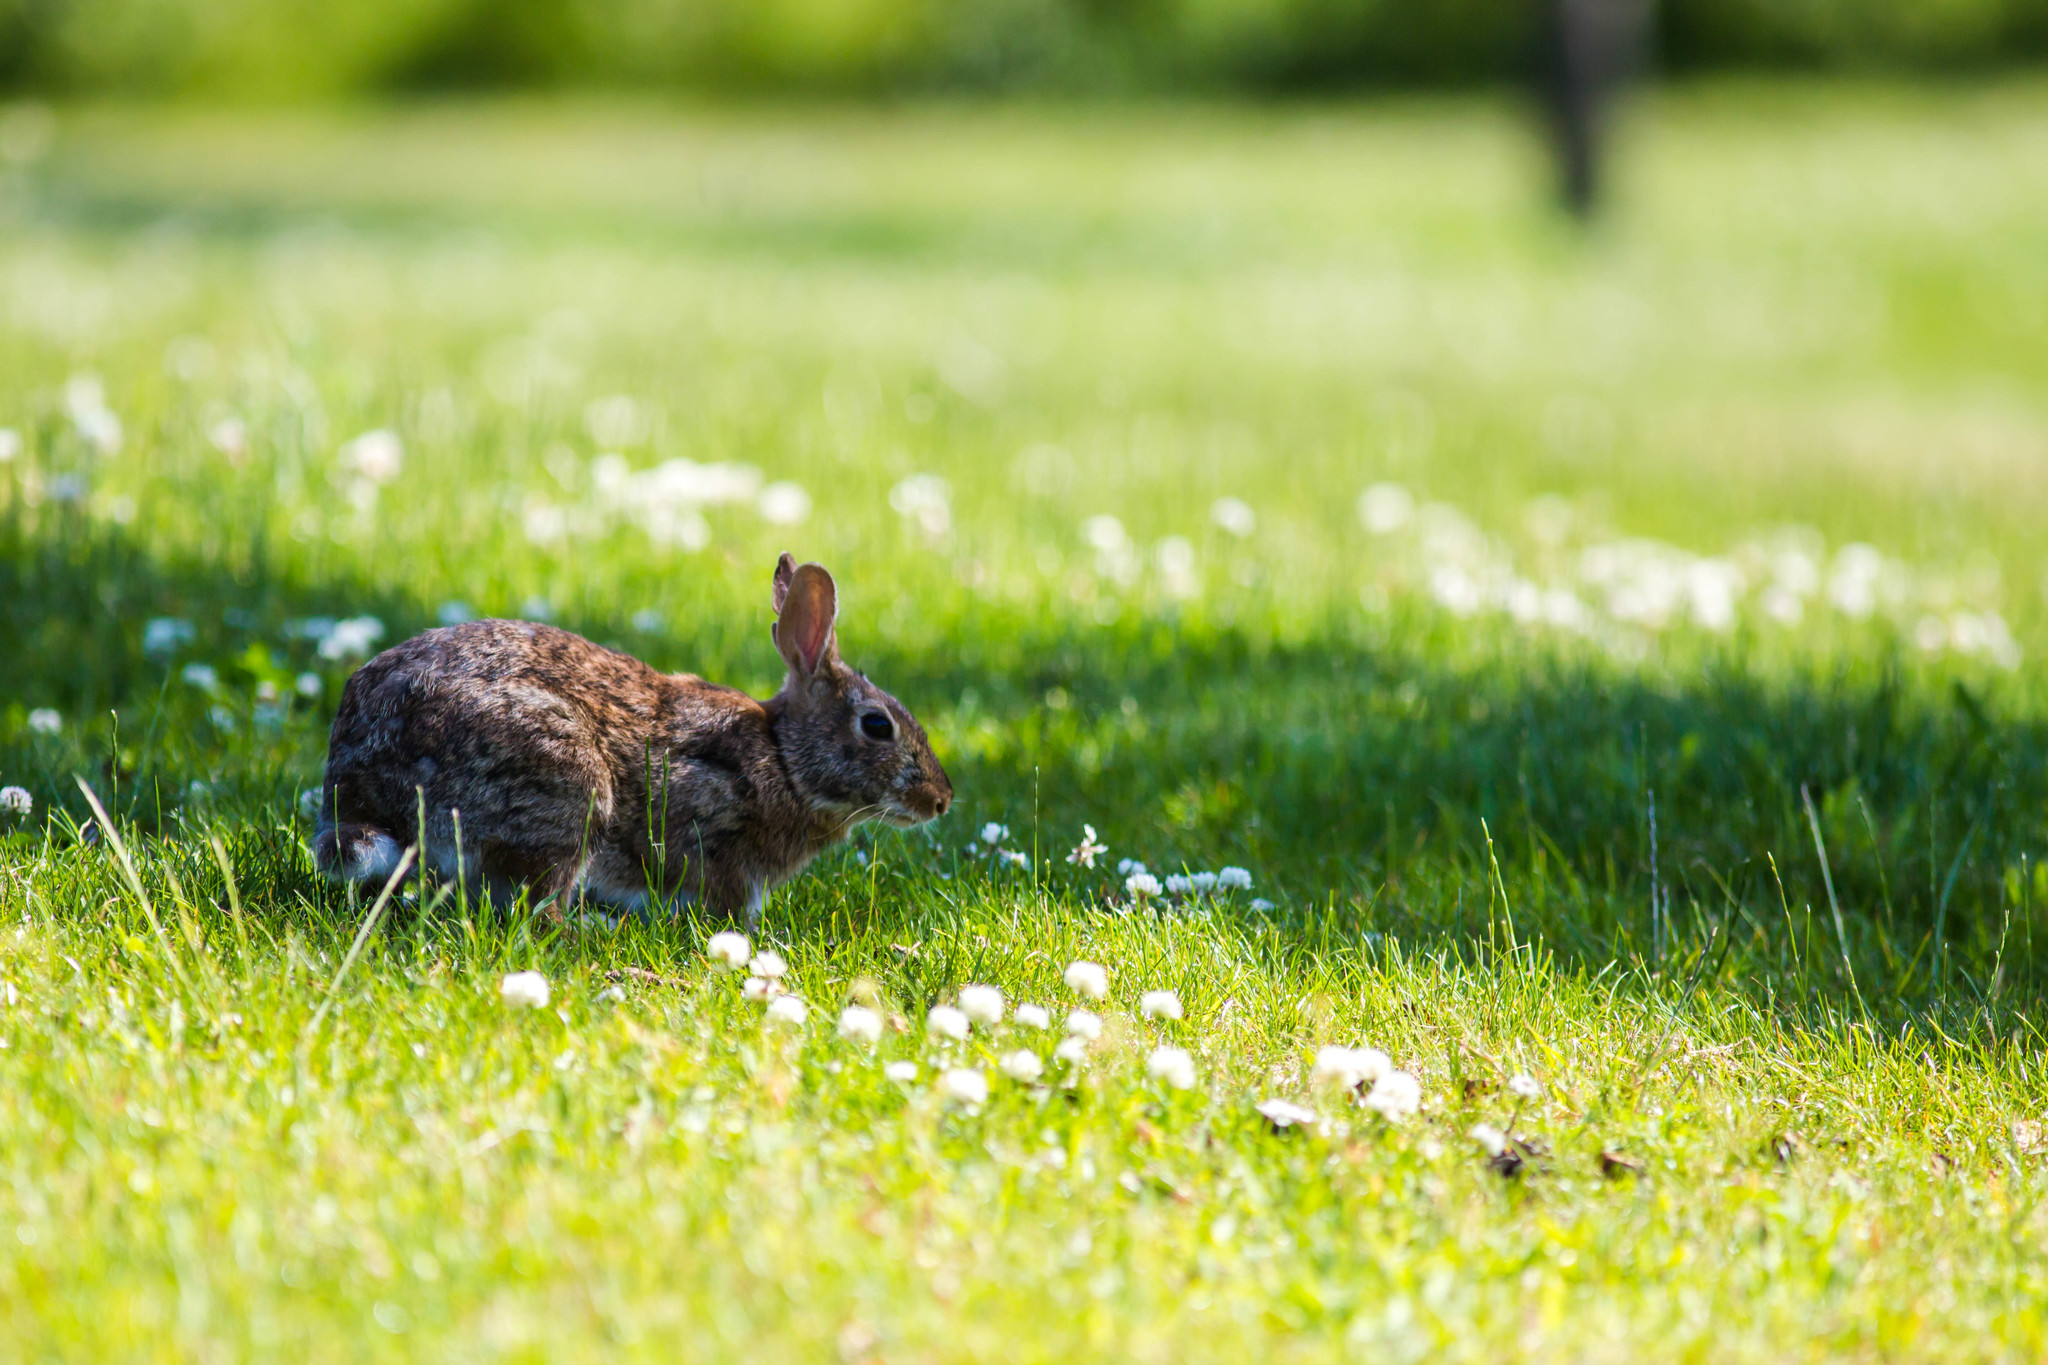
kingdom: Animalia
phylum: Chordata
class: Mammalia
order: Lagomorpha
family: Leporidae
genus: Sylvilagus
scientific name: Sylvilagus floridanus
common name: Eastern cottontail
